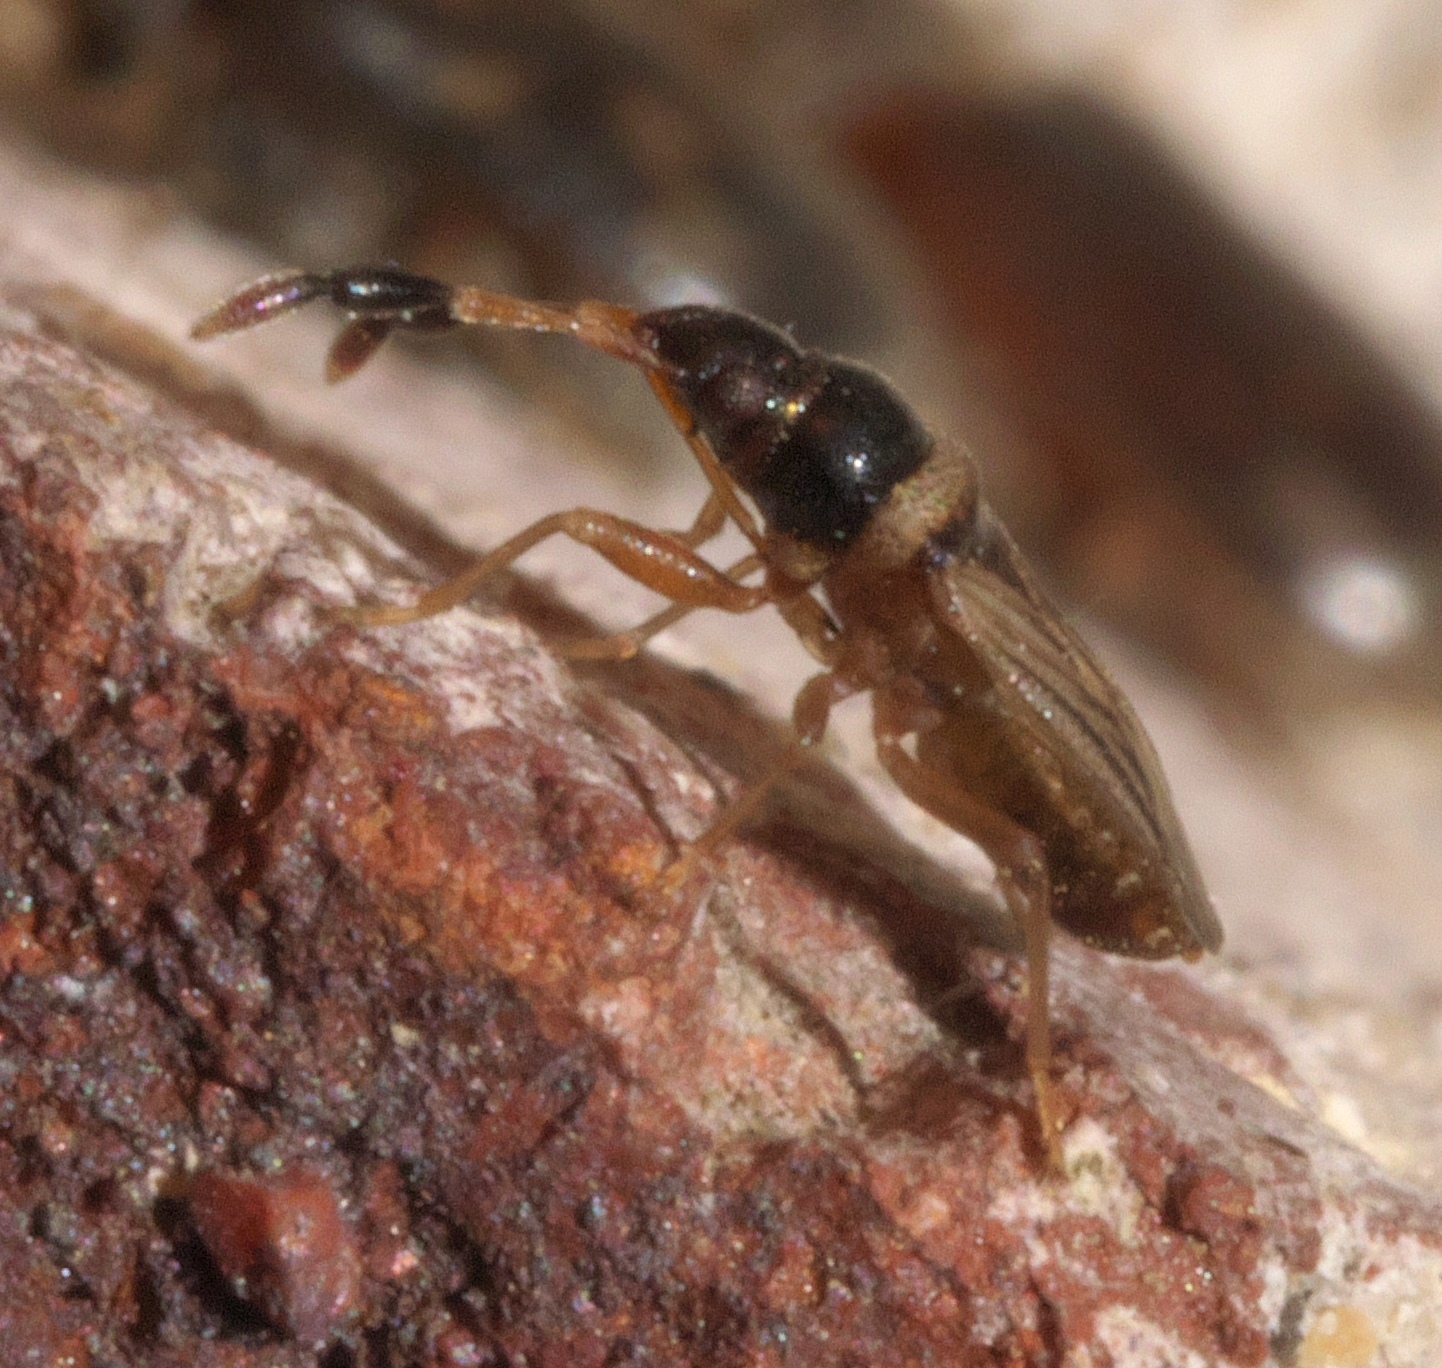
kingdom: Animalia
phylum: Arthropoda
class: Insecta
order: Hemiptera
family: Rhyparochromidae
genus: Ptochiomera
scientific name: Ptochiomera nodosa
